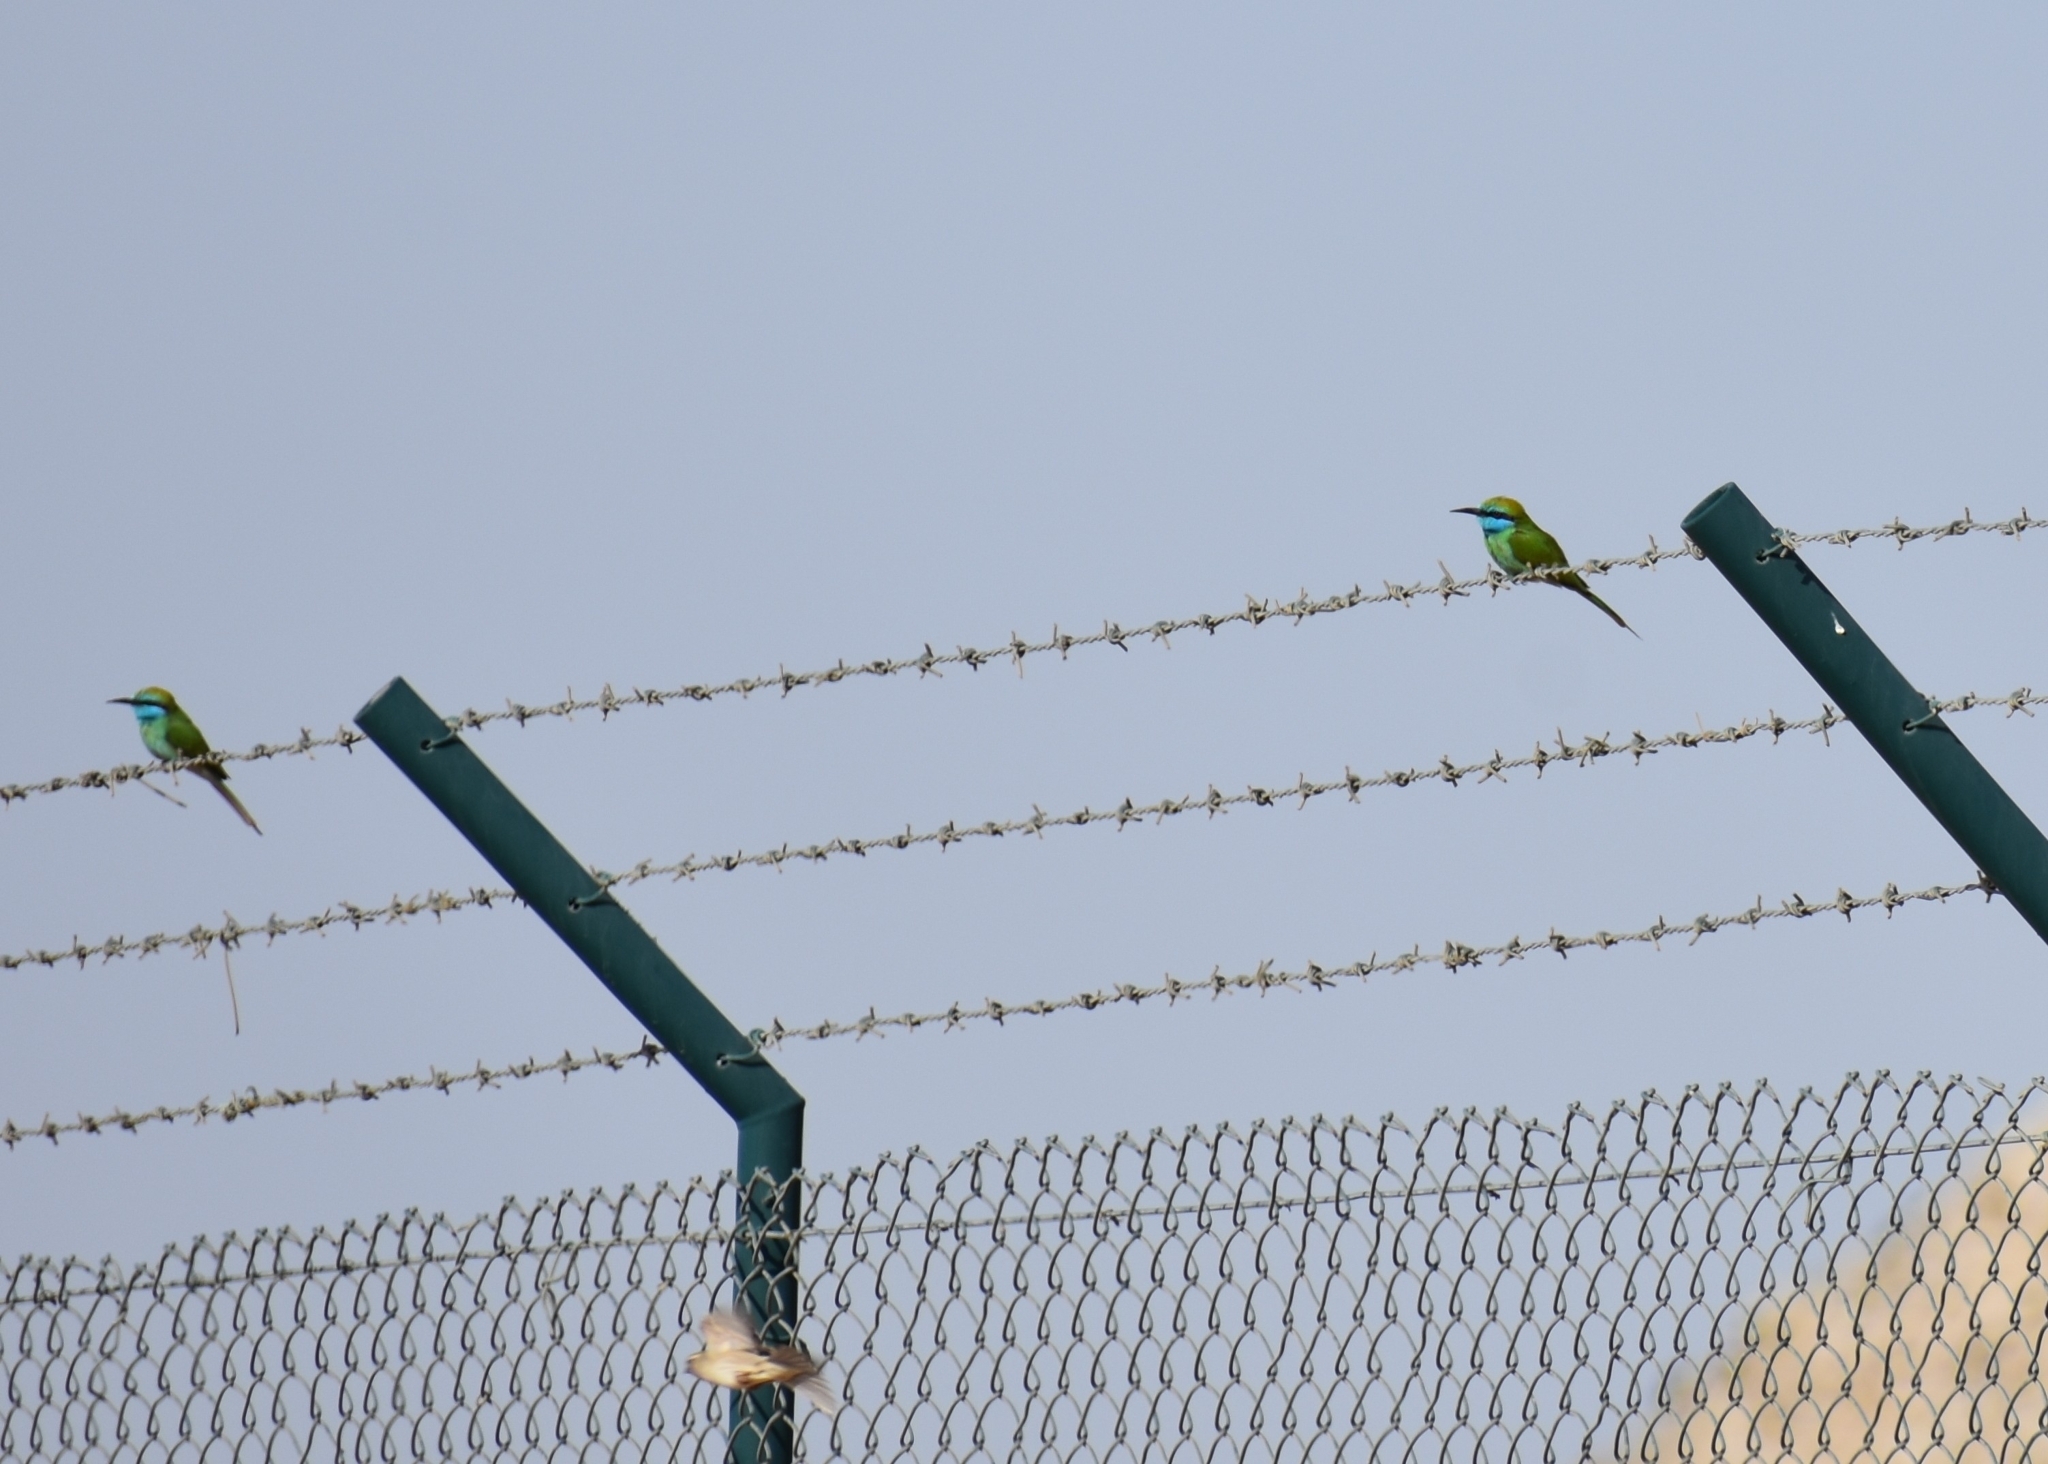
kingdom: Animalia
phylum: Chordata
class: Aves
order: Coraciiformes
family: Meropidae
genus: Merops
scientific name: Merops cyanophrys
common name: Arabian green bee-eater
